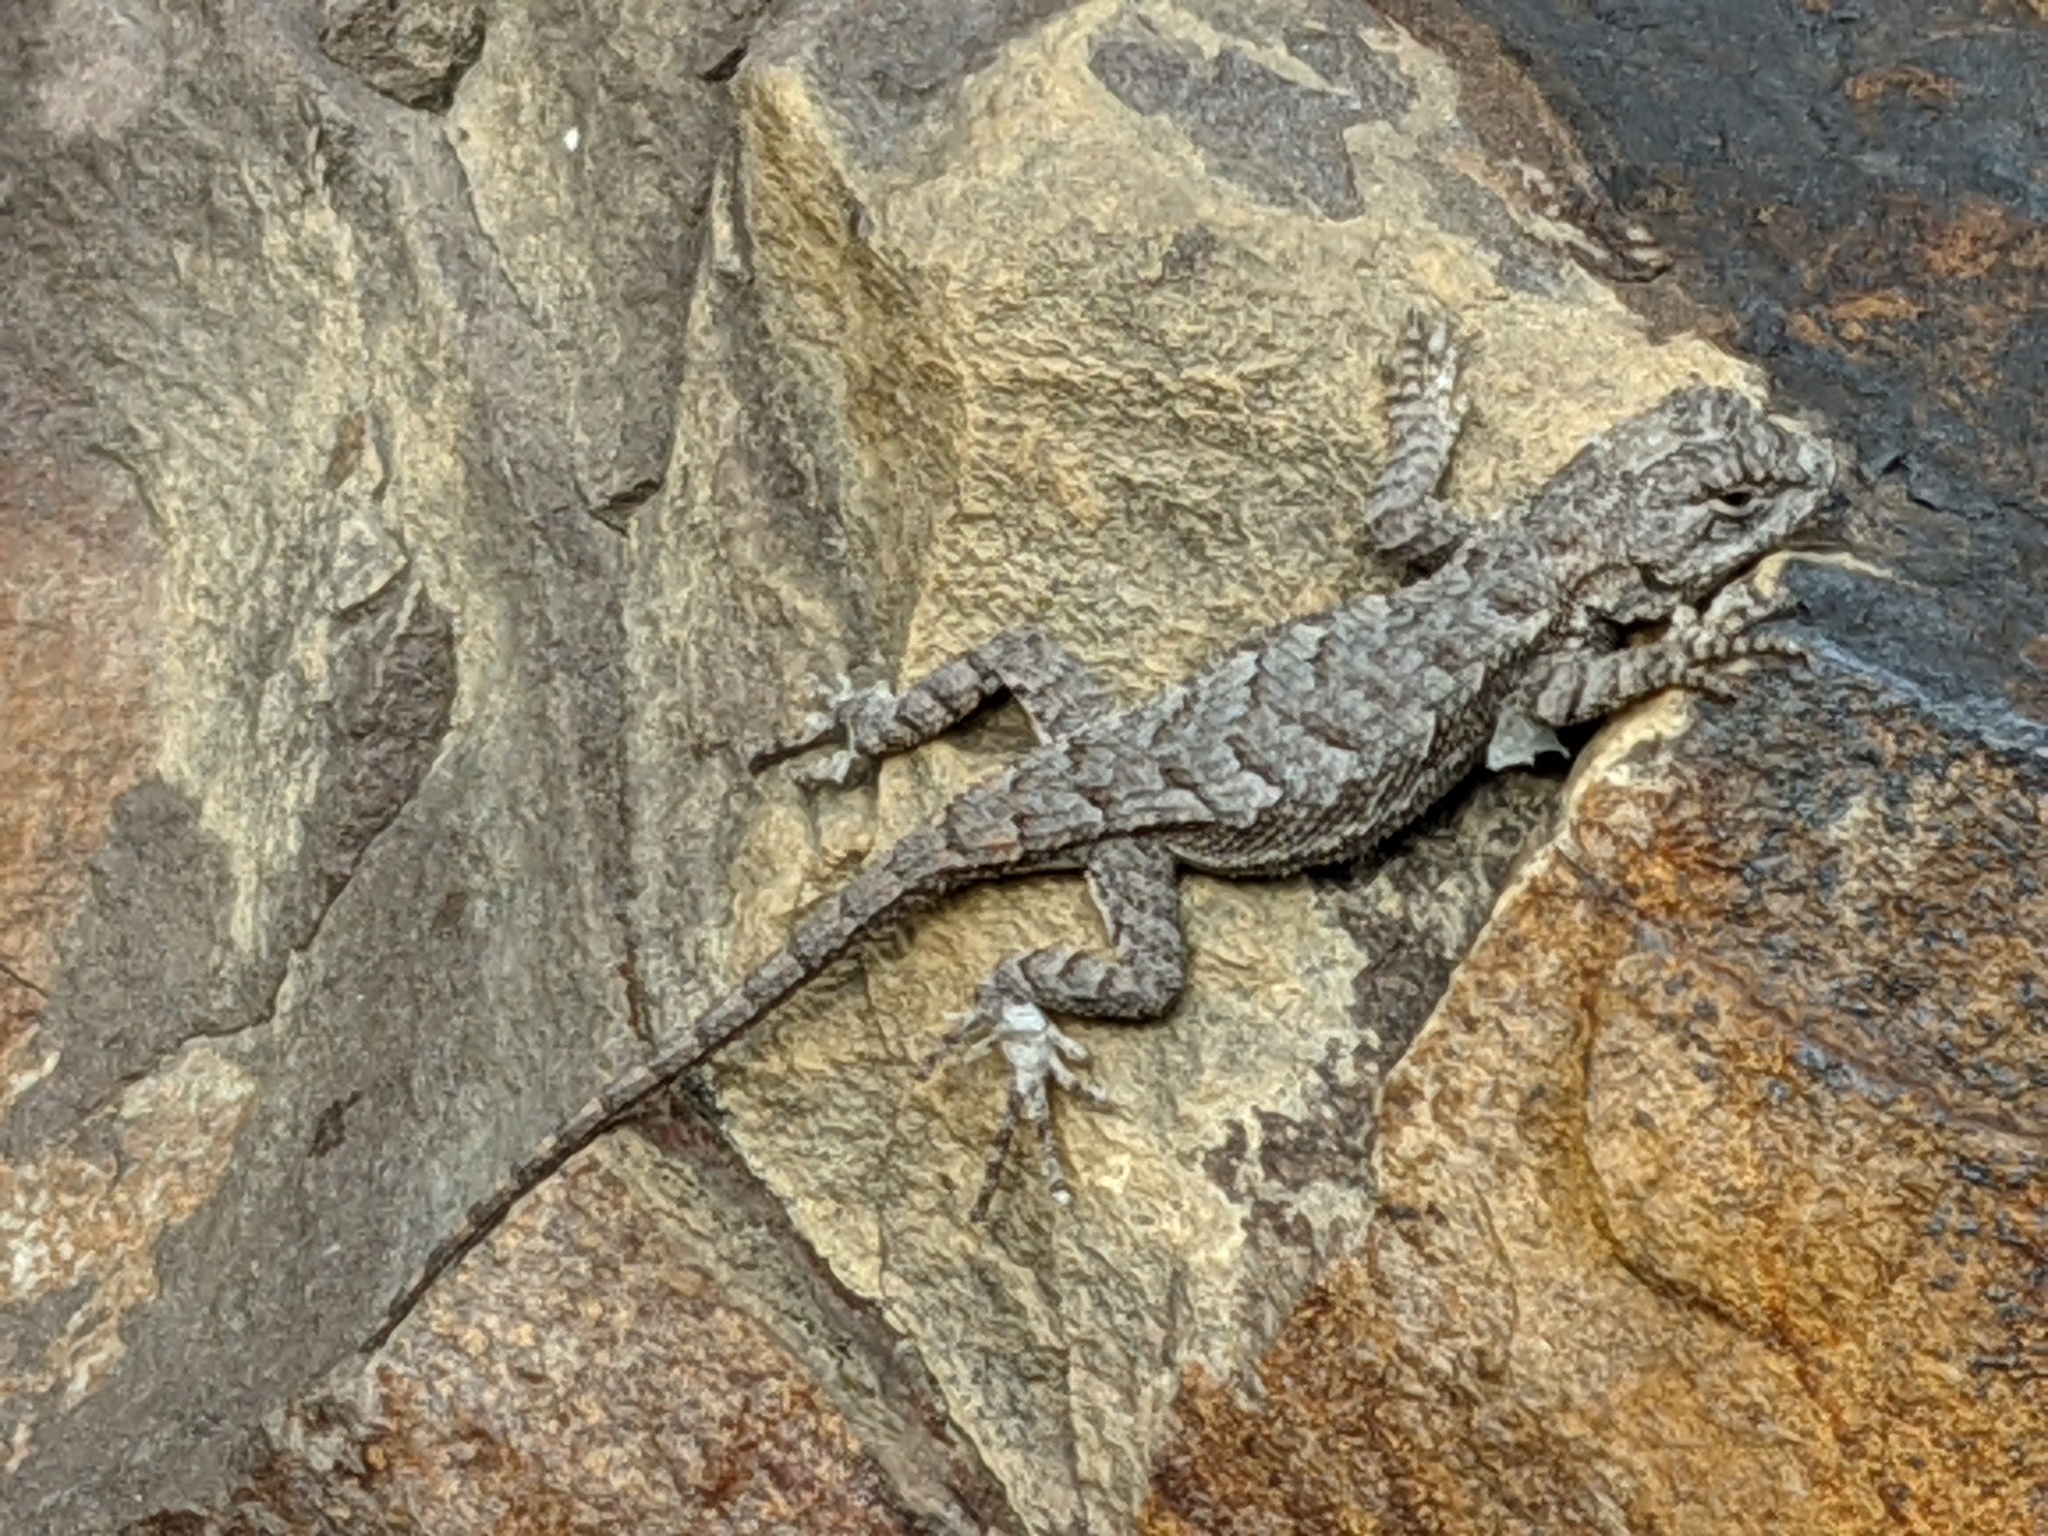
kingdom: Animalia
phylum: Chordata
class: Squamata
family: Phrynosomatidae
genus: Sceloporus
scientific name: Sceloporus undulatus
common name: Eastern fence lizard
